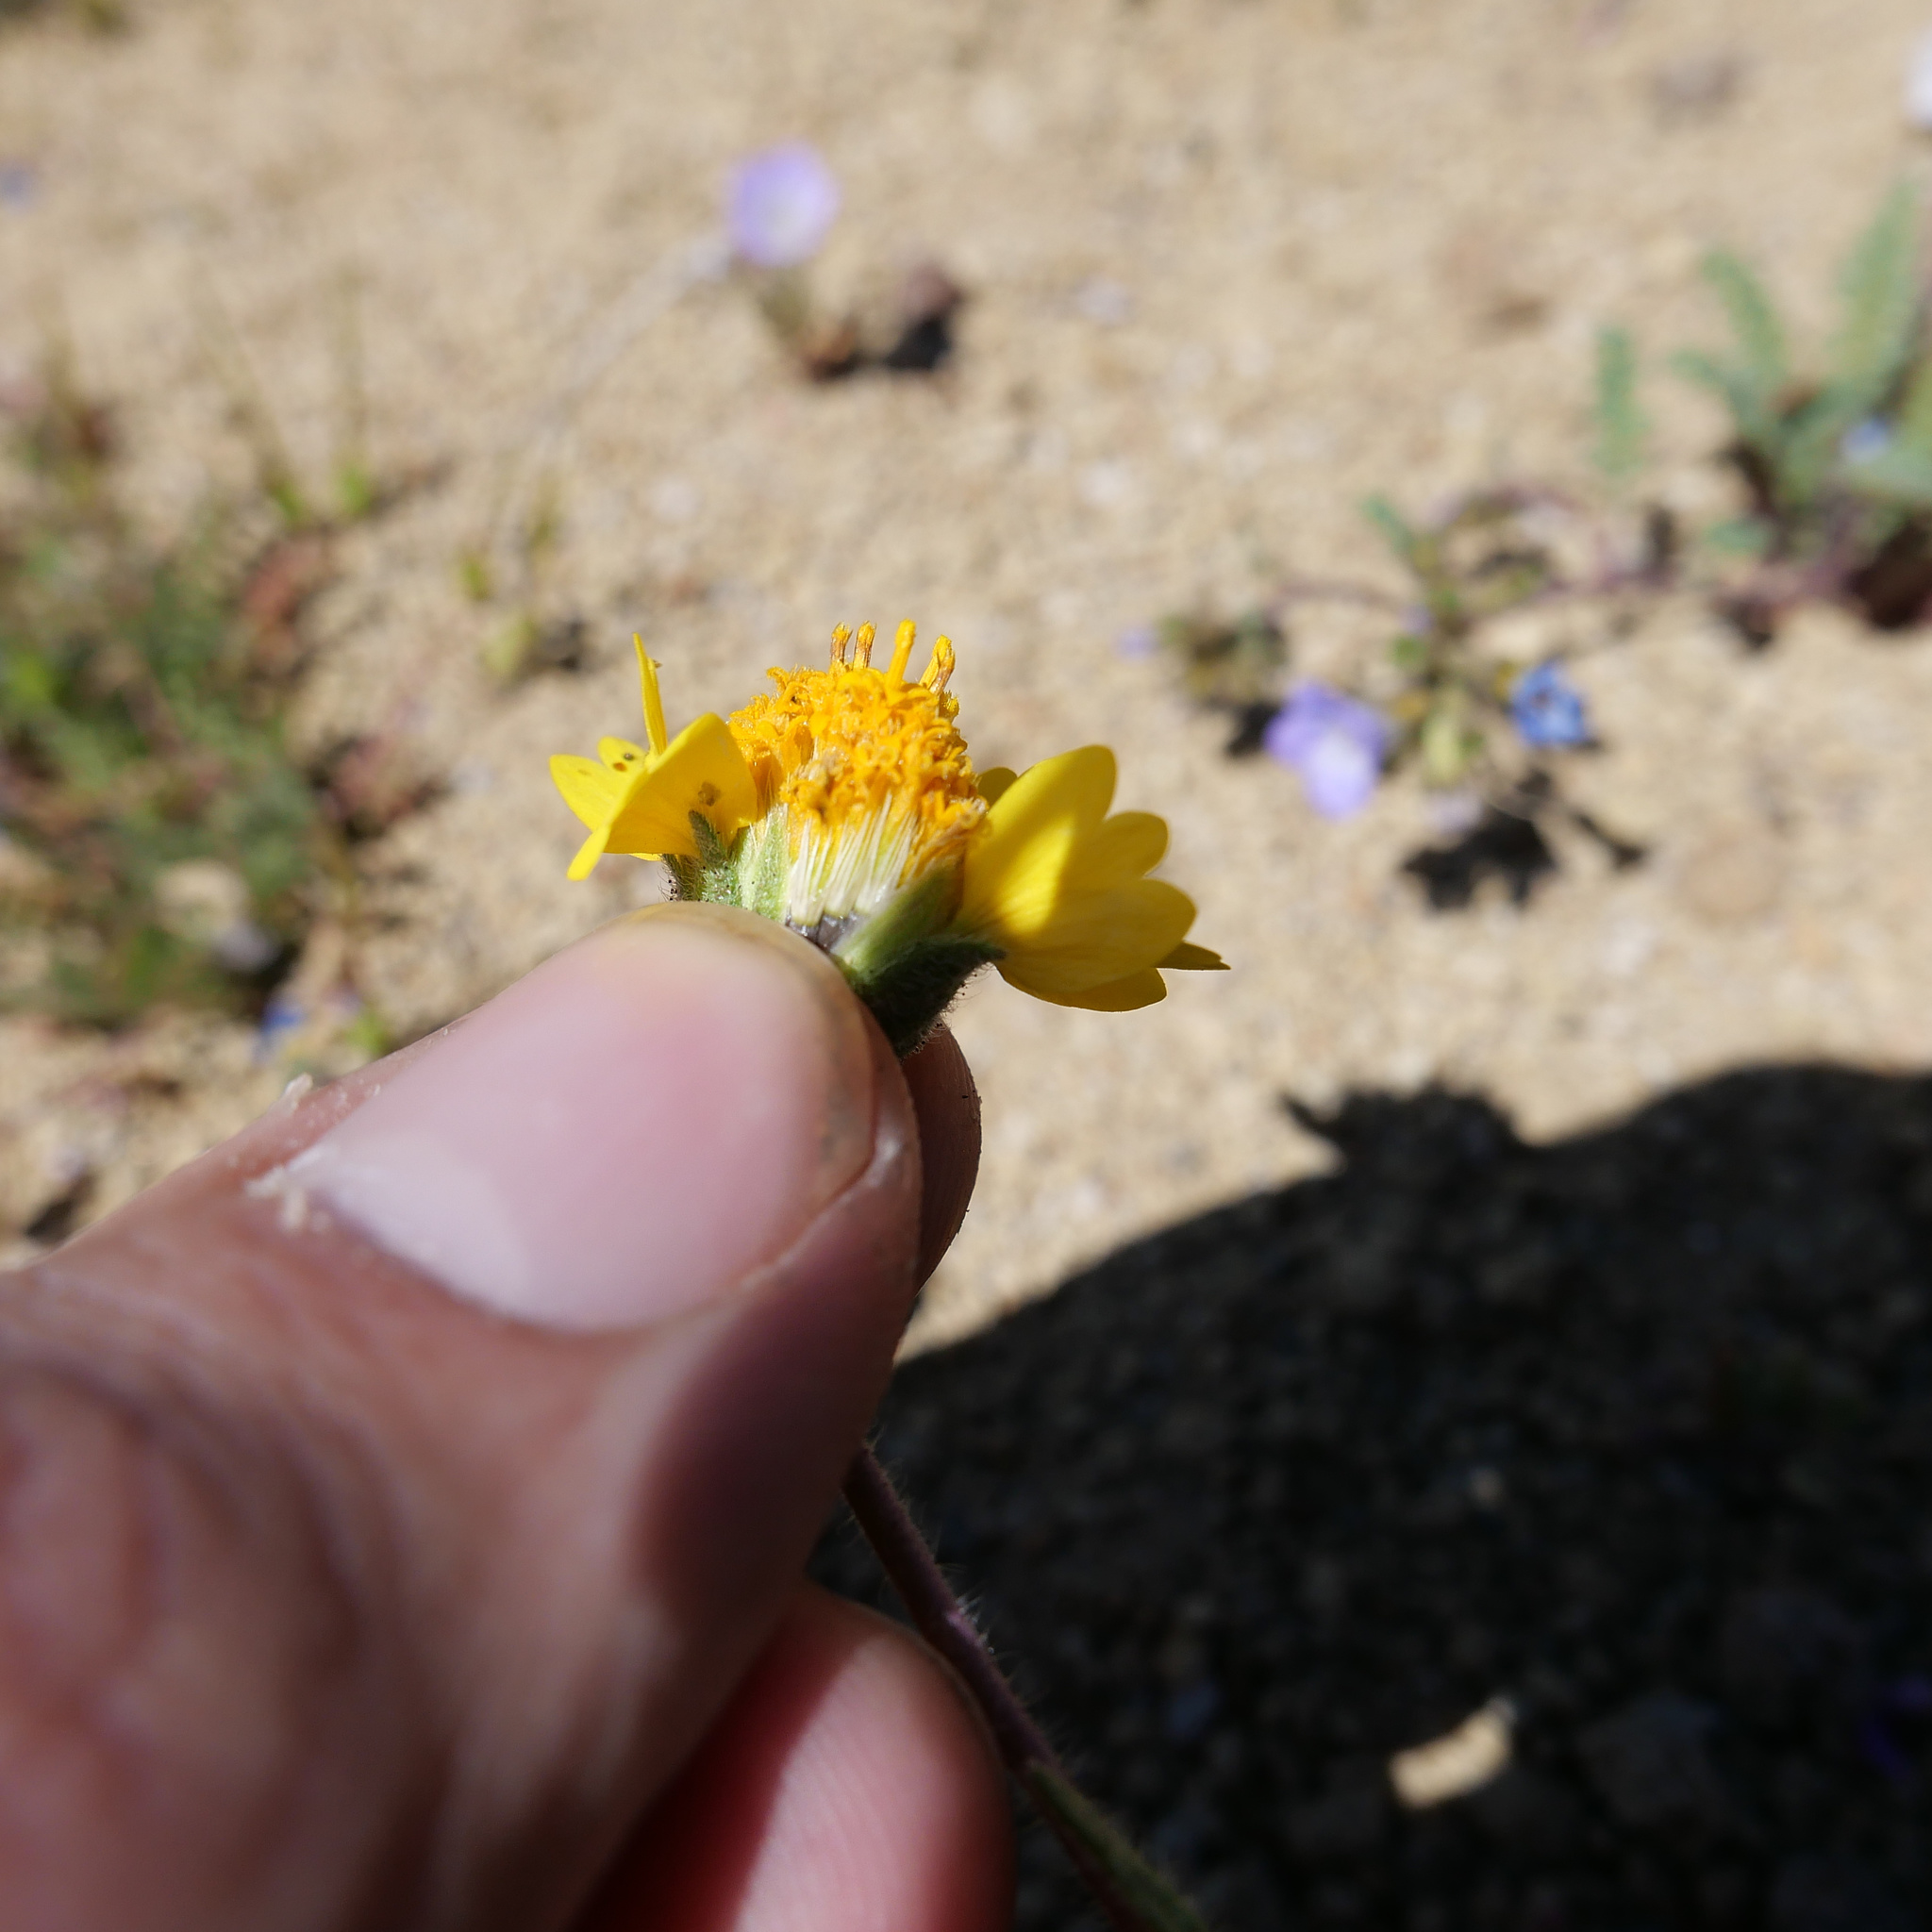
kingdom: Plantae
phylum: Tracheophyta
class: Magnoliopsida
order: Asterales
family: Asteraceae
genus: Layia
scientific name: Layia glandulosa
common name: White layia
